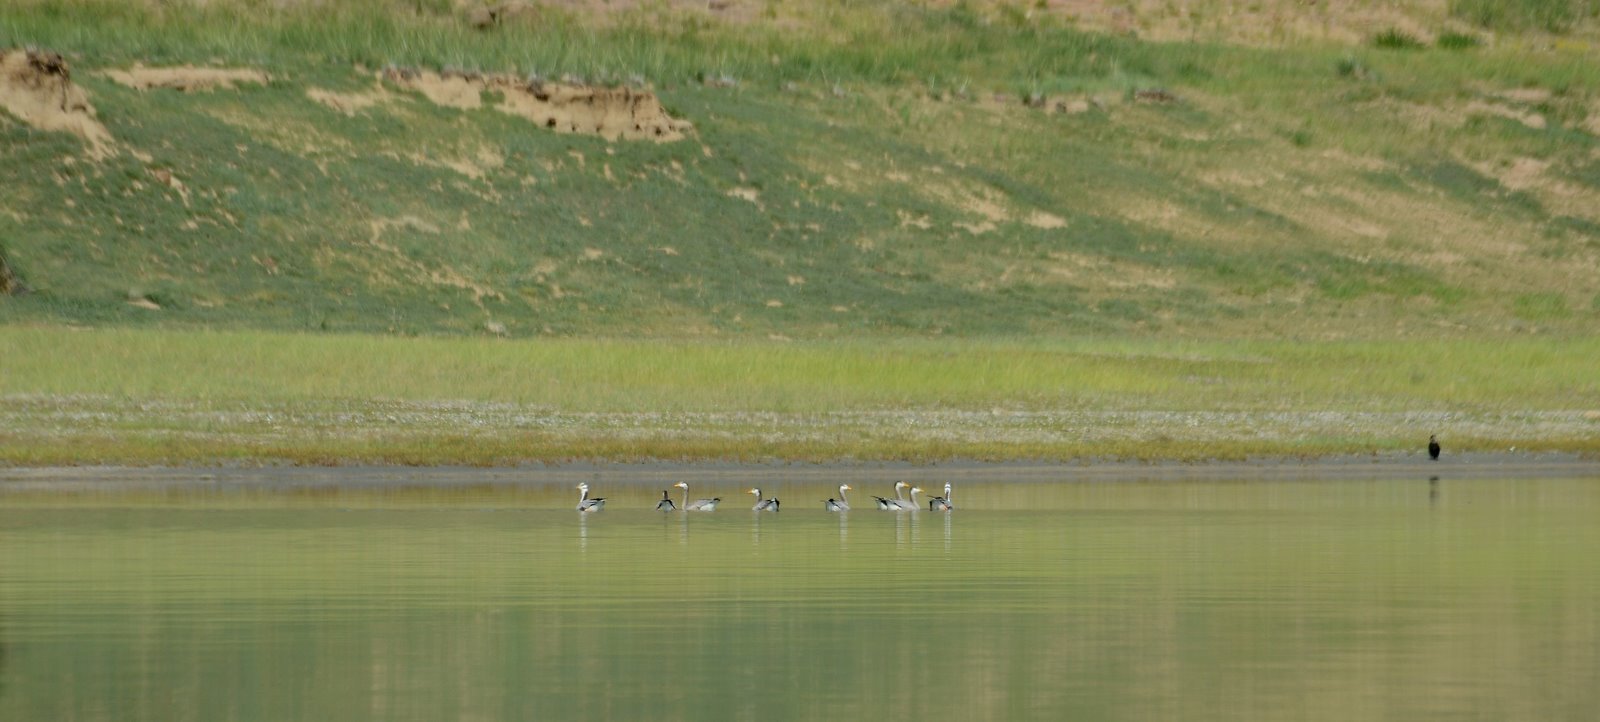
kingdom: Animalia
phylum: Chordata
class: Aves
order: Anseriformes
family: Anatidae
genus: Anser
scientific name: Anser indicus
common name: Bar-headed goose
